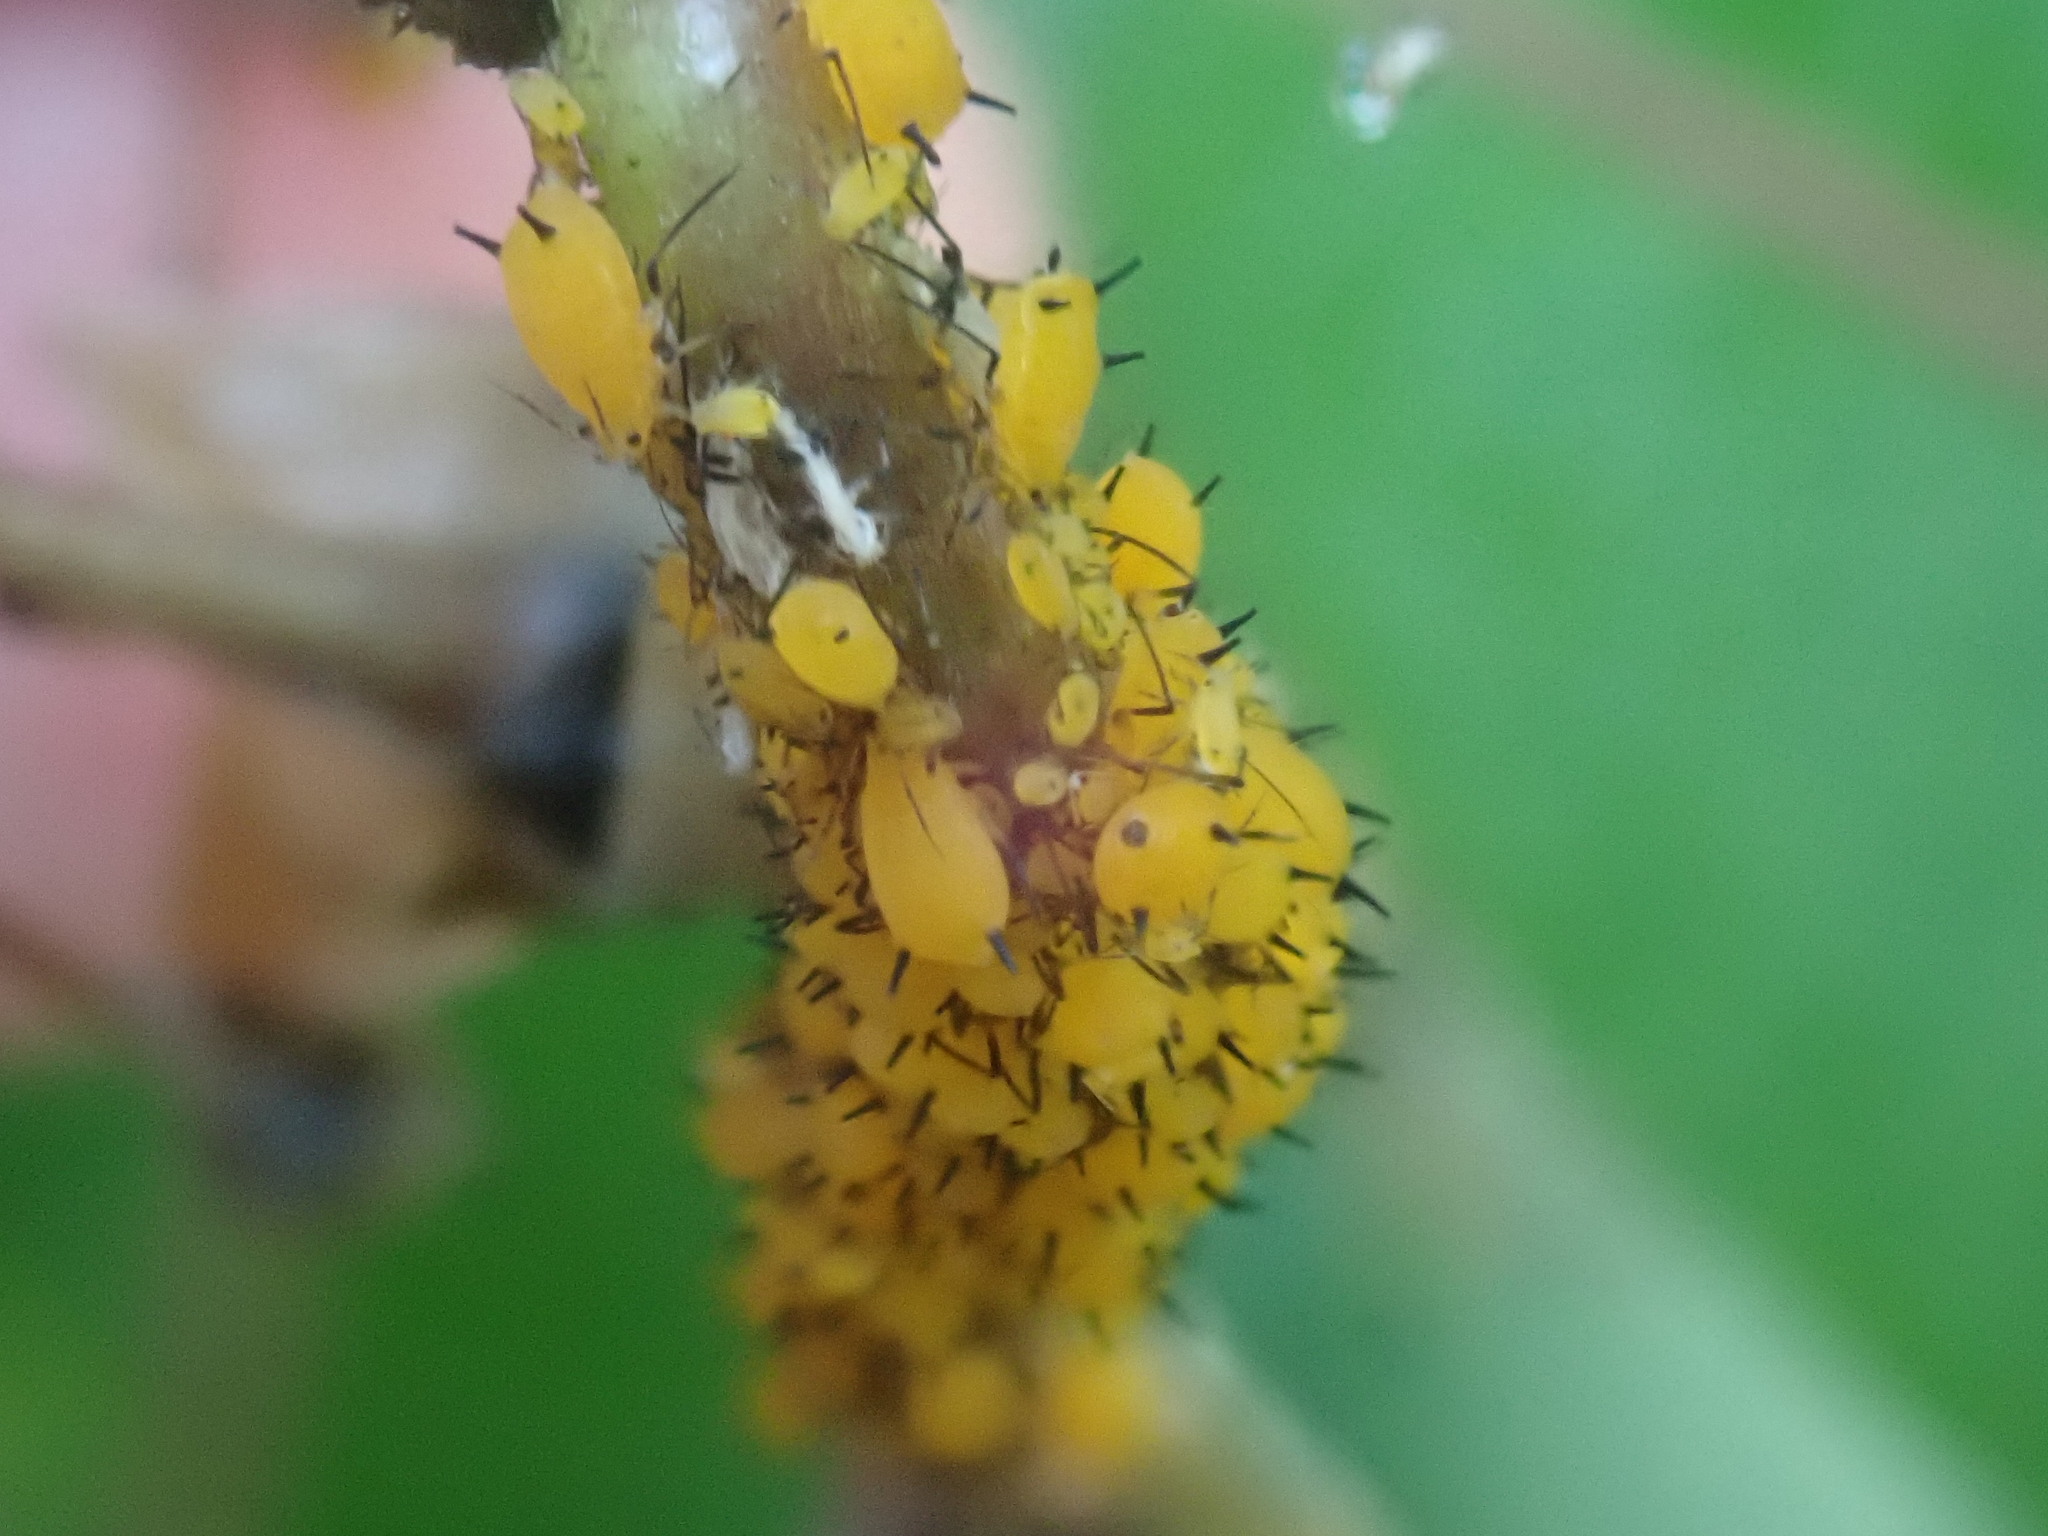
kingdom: Animalia
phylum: Arthropoda
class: Insecta
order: Hemiptera
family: Aphididae
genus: Aphis
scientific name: Aphis nerii
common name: Oleander aphid
